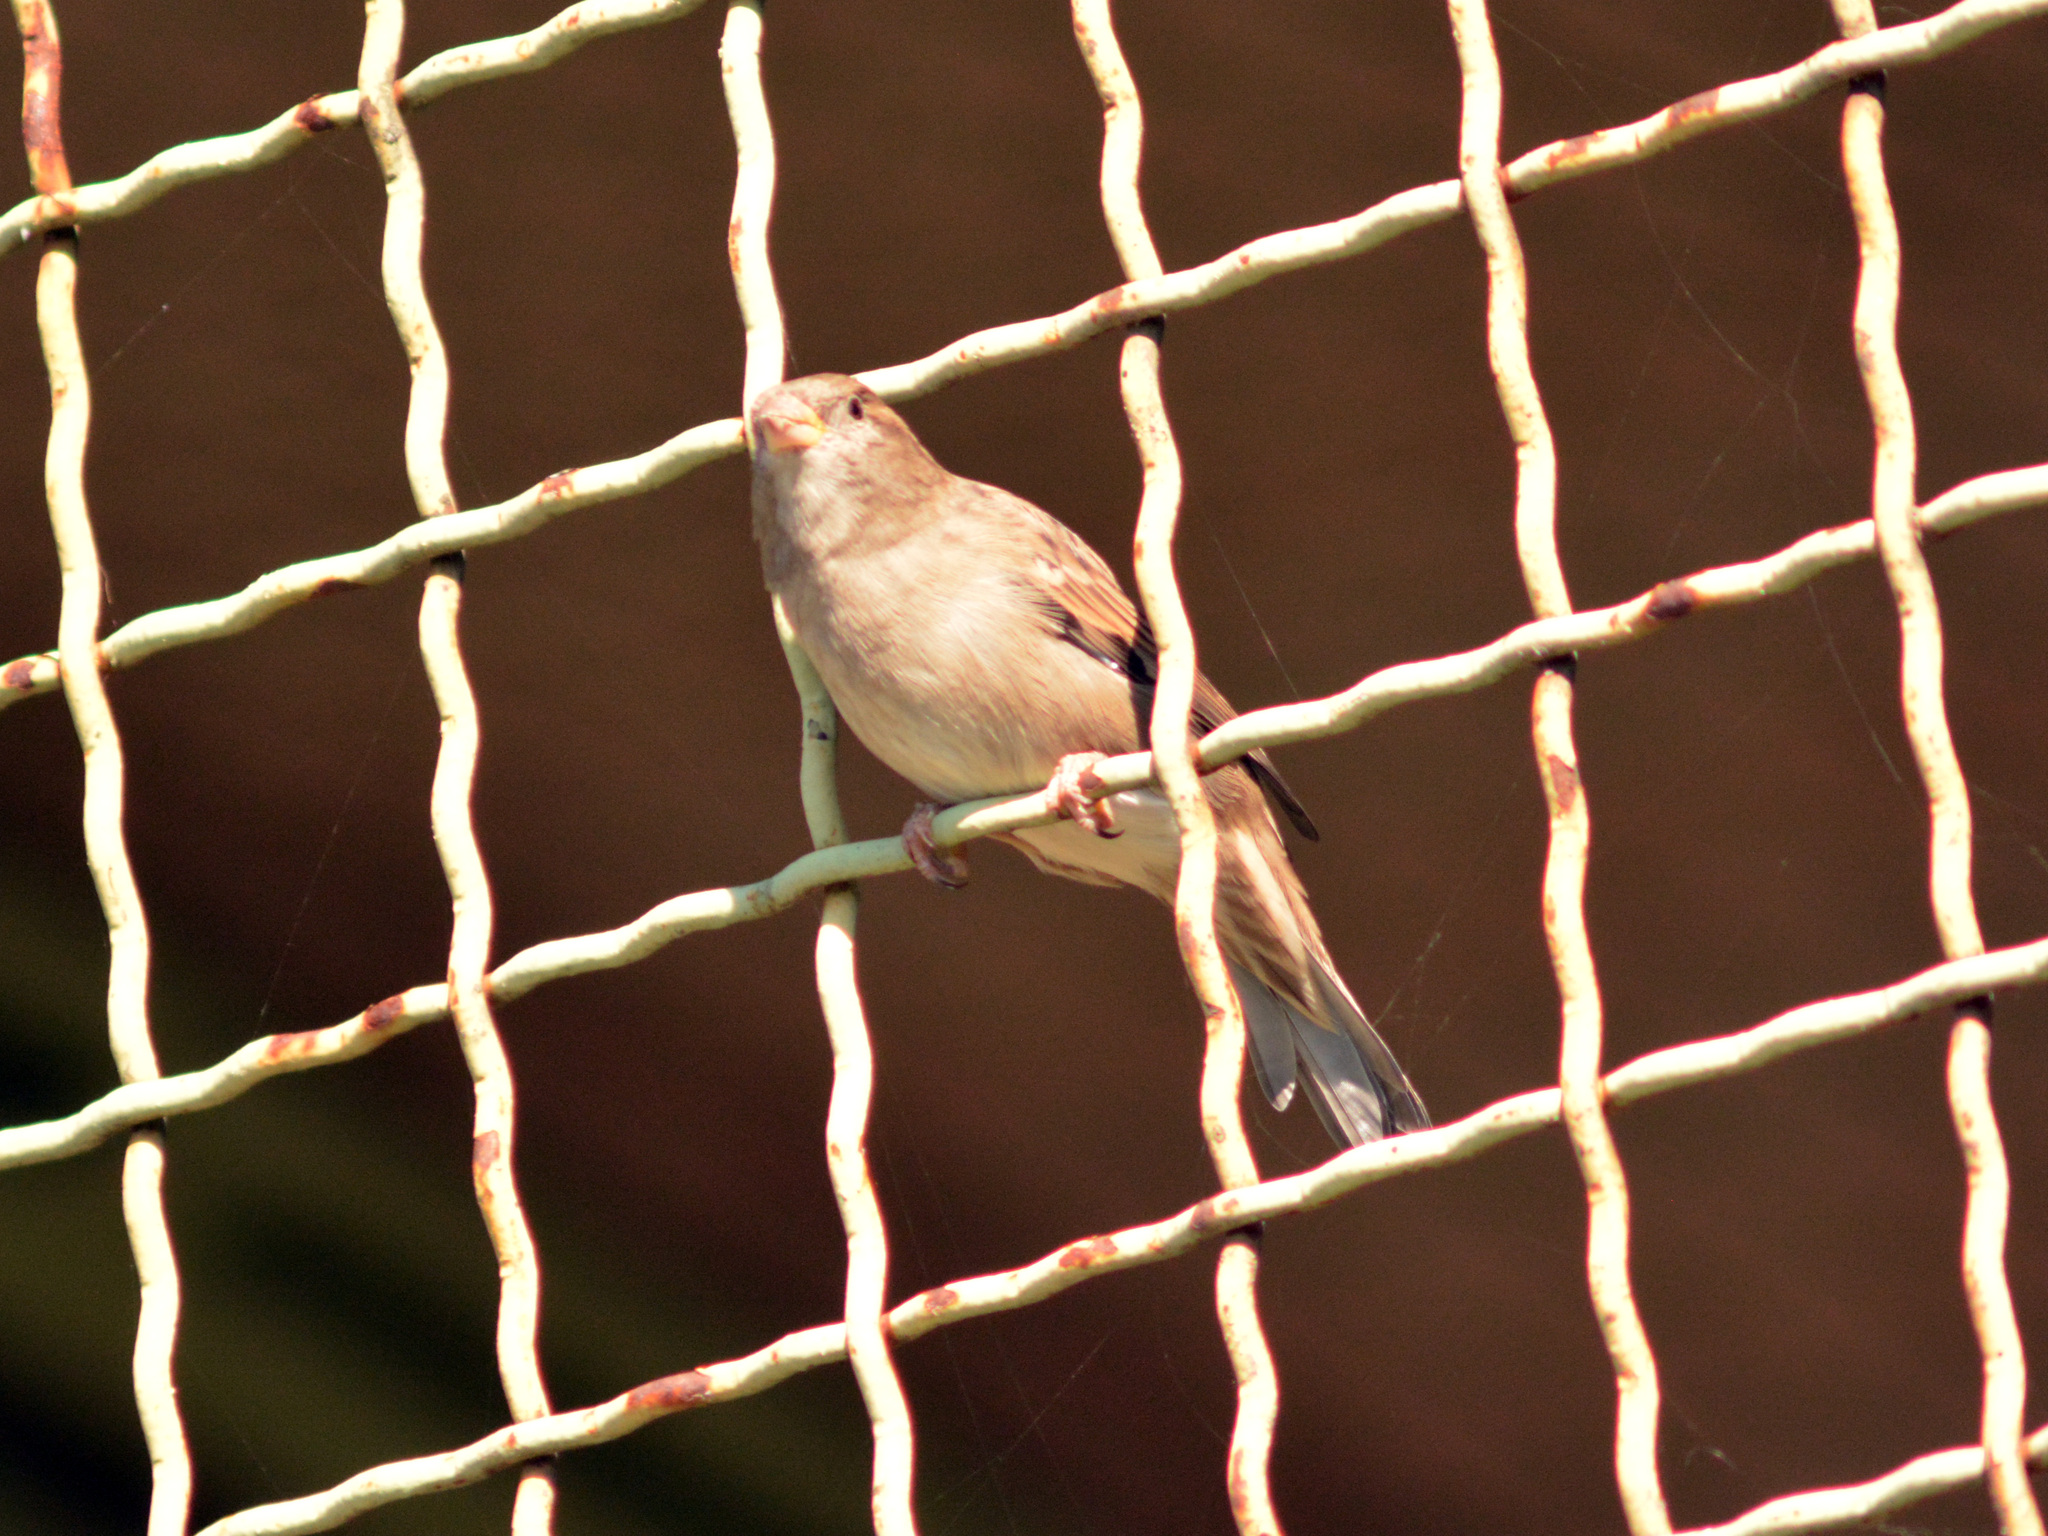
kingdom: Animalia
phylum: Chordata
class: Aves
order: Passeriformes
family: Passeridae
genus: Passer
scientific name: Passer domesticus
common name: House sparrow
